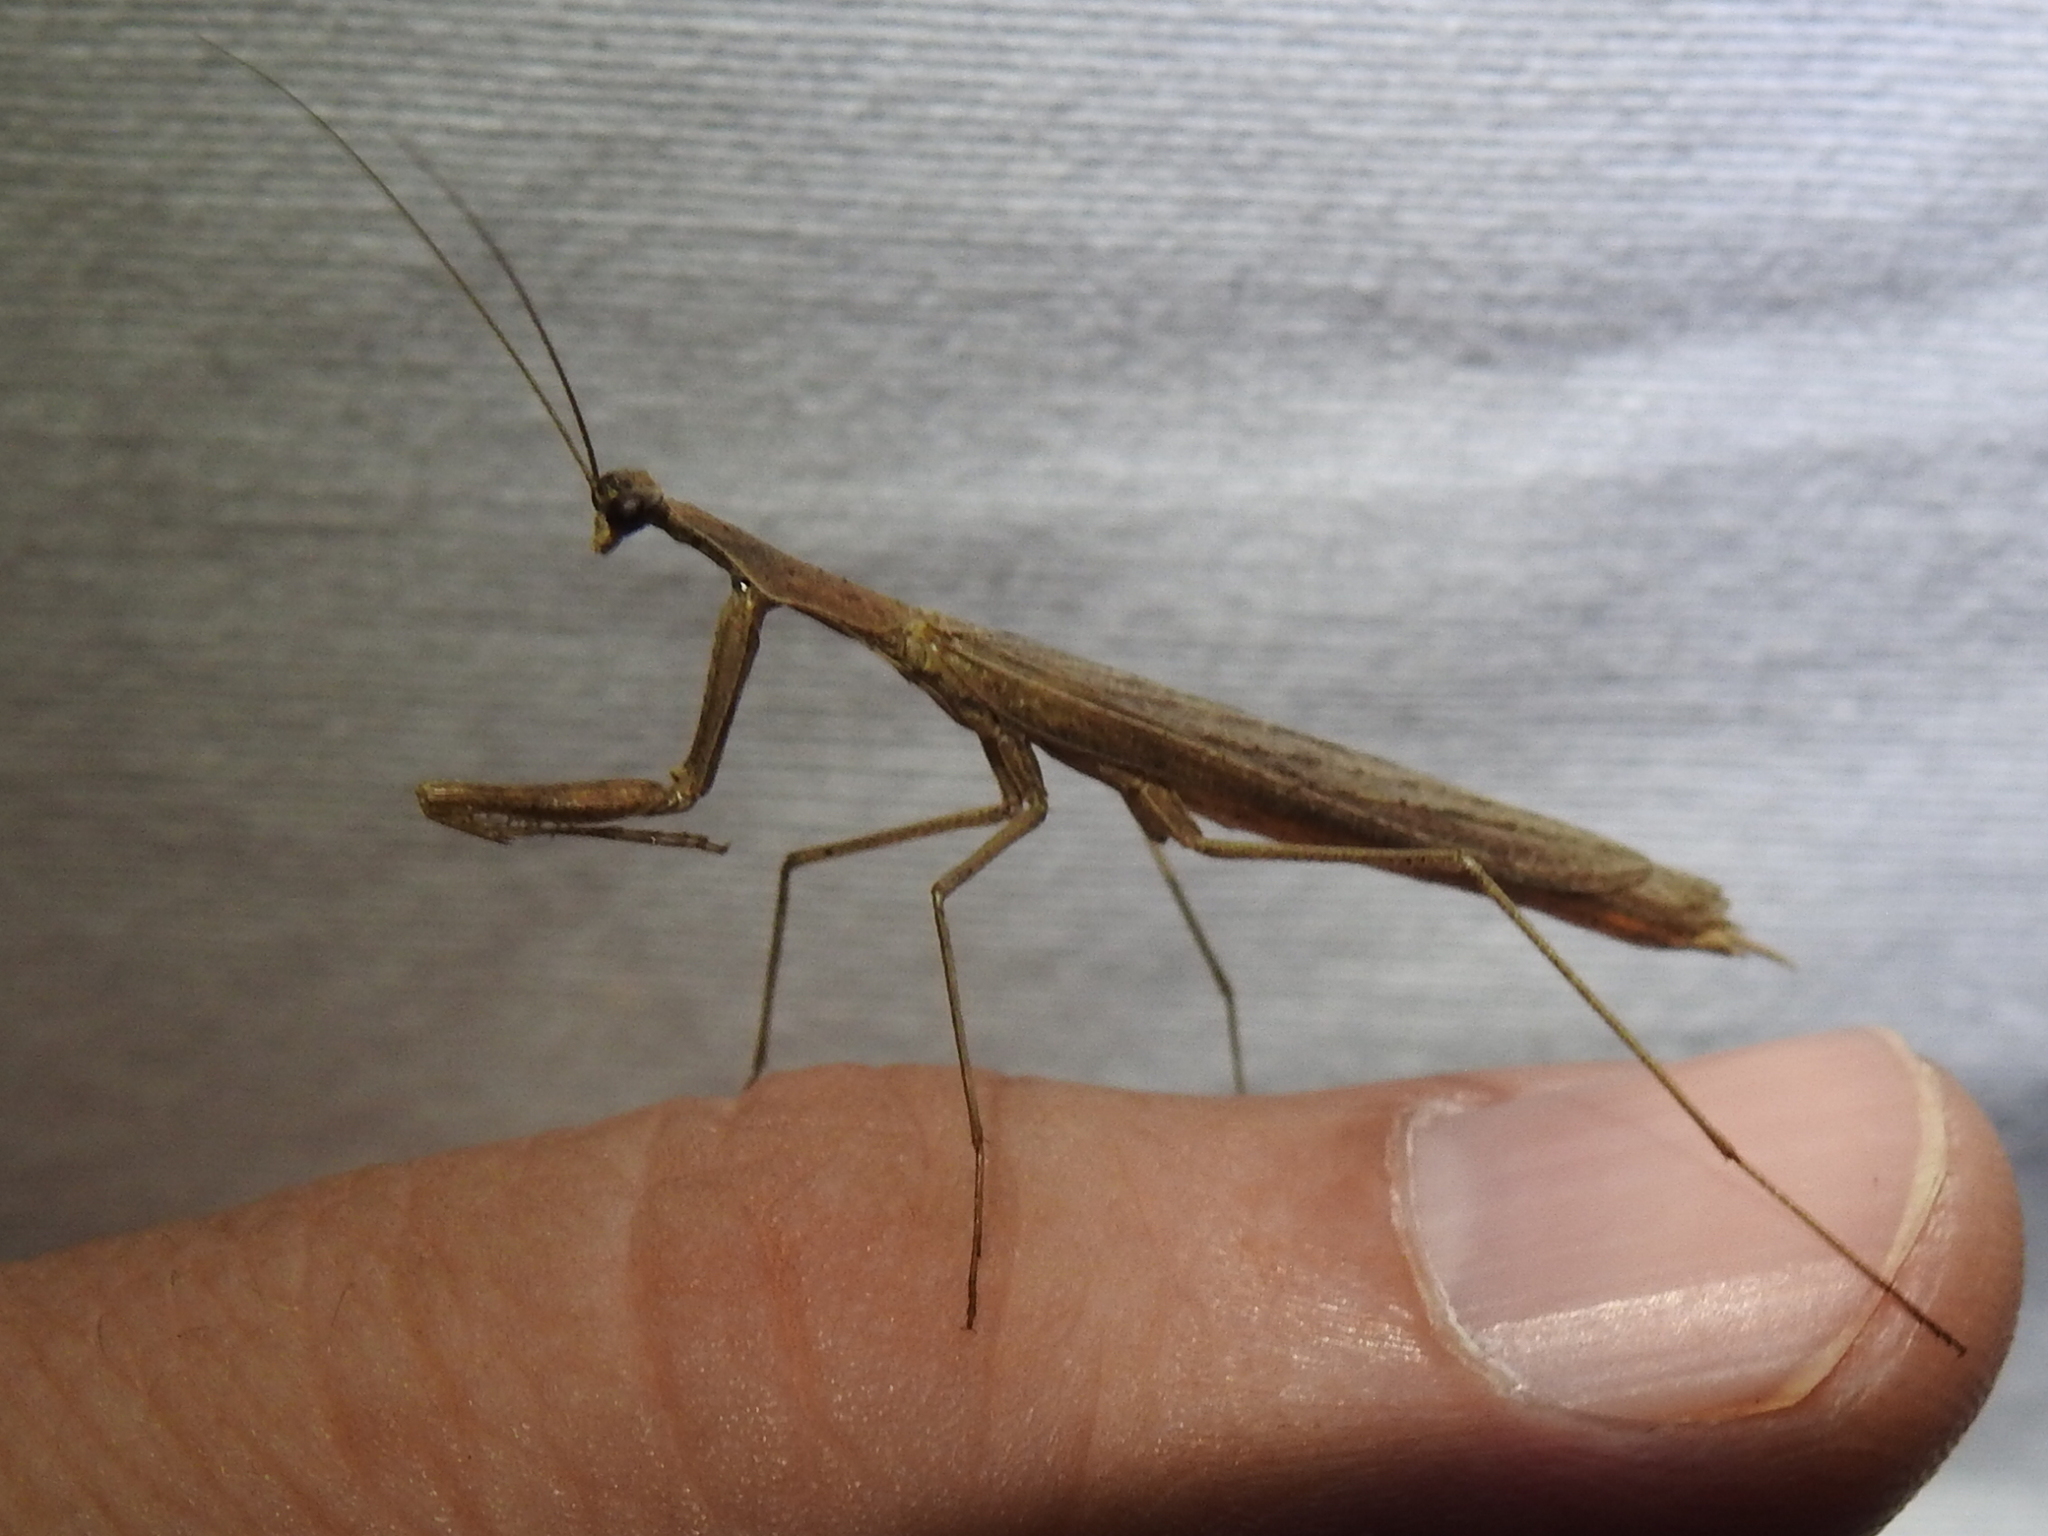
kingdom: Animalia
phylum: Arthropoda
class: Insecta
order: Mantodea
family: Thespidae
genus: Oligonicella
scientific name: Oligonicella scudderi
